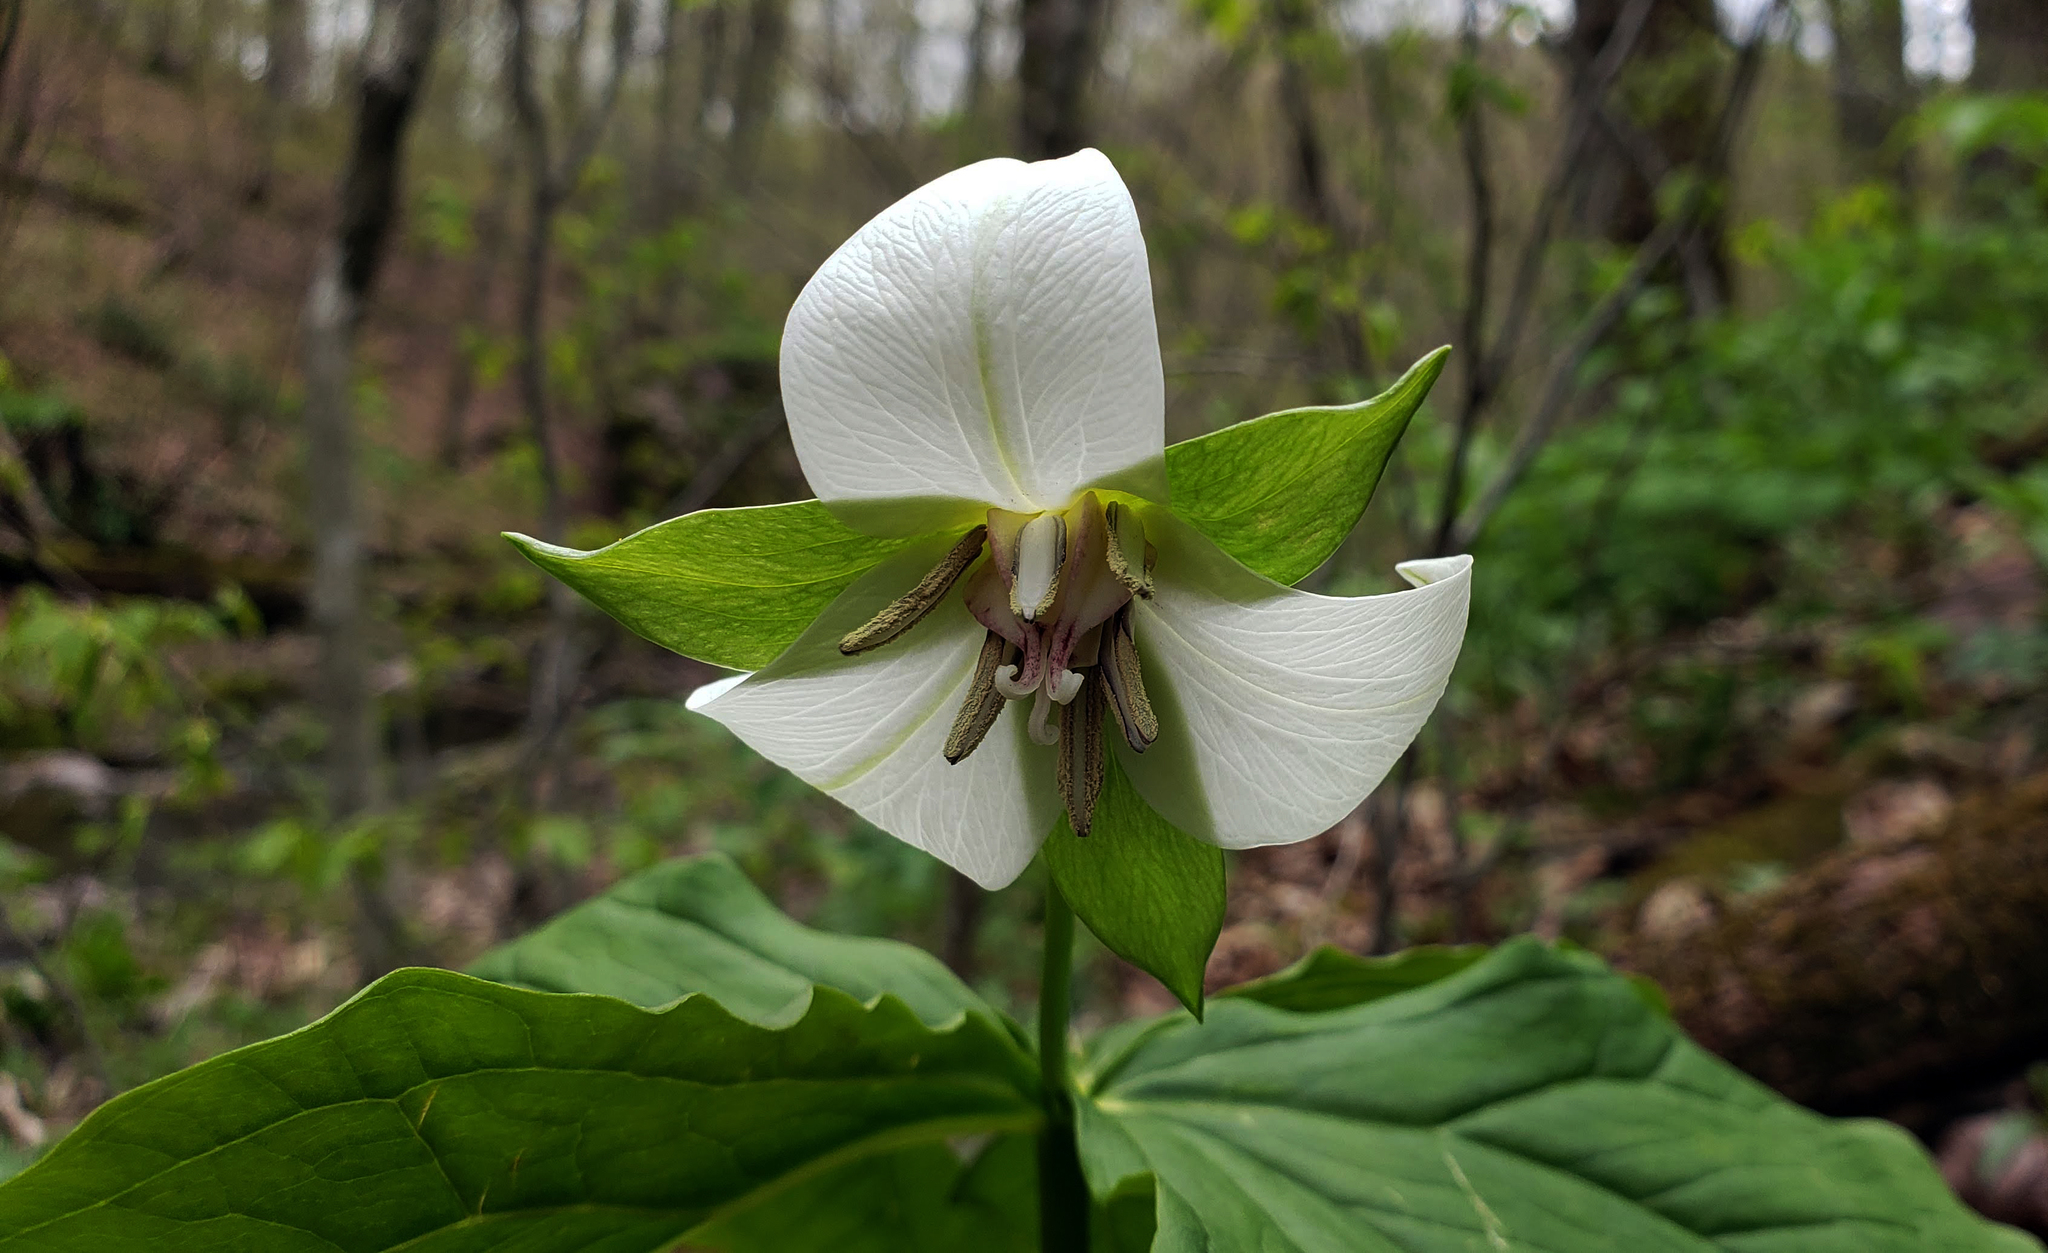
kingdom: Plantae
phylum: Tracheophyta
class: Liliopsida
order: Liliales
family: Melanthiaceae
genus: Trillium
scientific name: Trillium flexipes
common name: Drooping trillium
